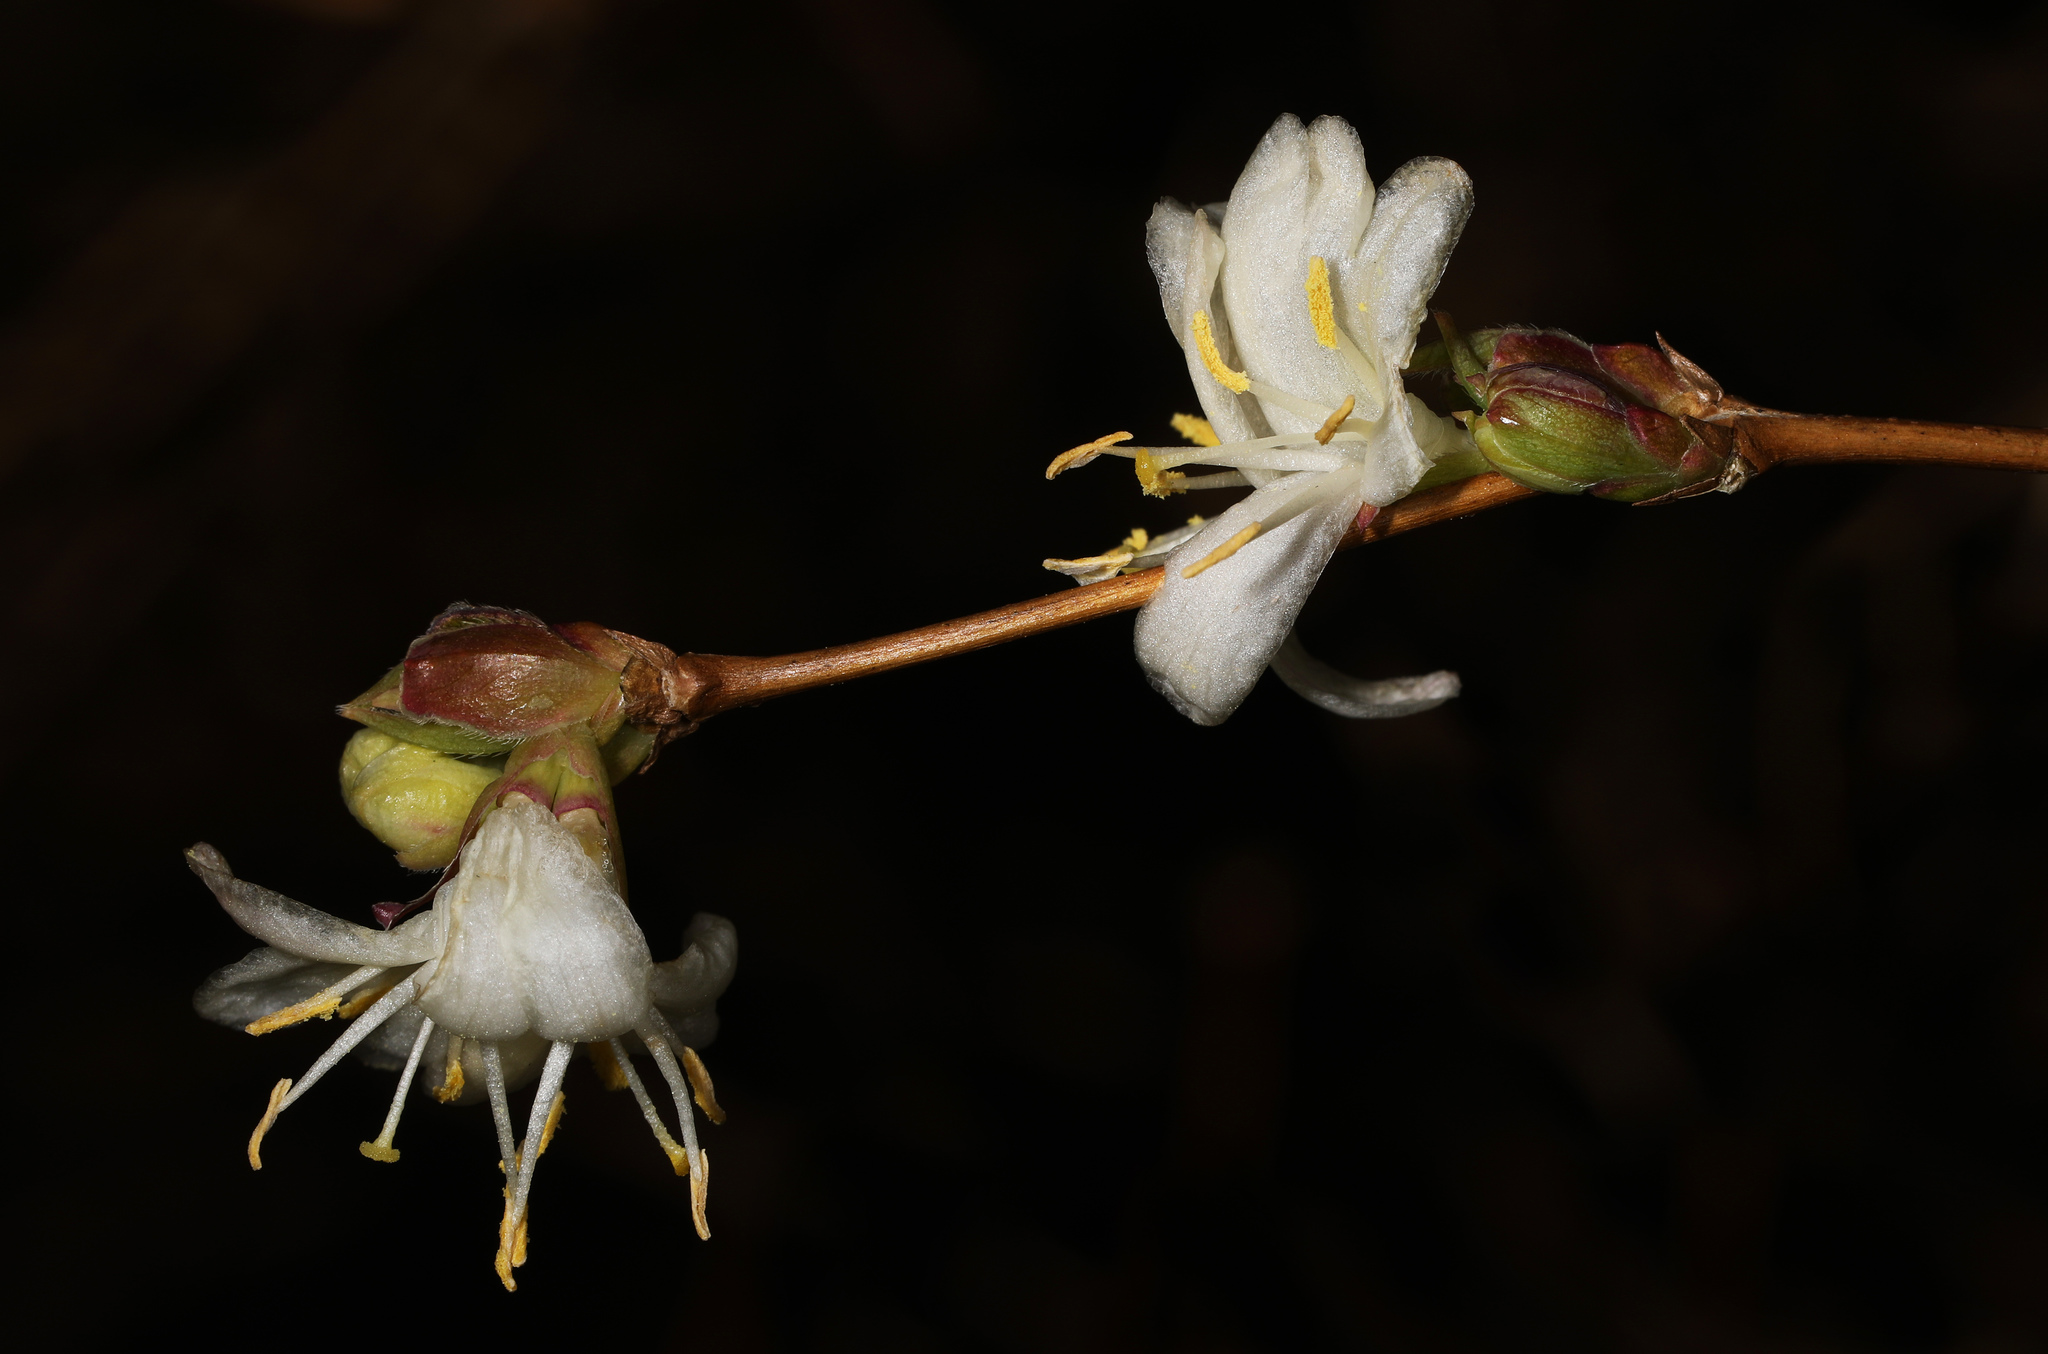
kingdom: Plantae
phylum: Tracheophyta
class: Magnoliopsida
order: Dipsacales
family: Caprifoliaceae
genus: Lonicera
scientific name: Lonicera fragrantissima
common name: Fragrant honeysuckle
